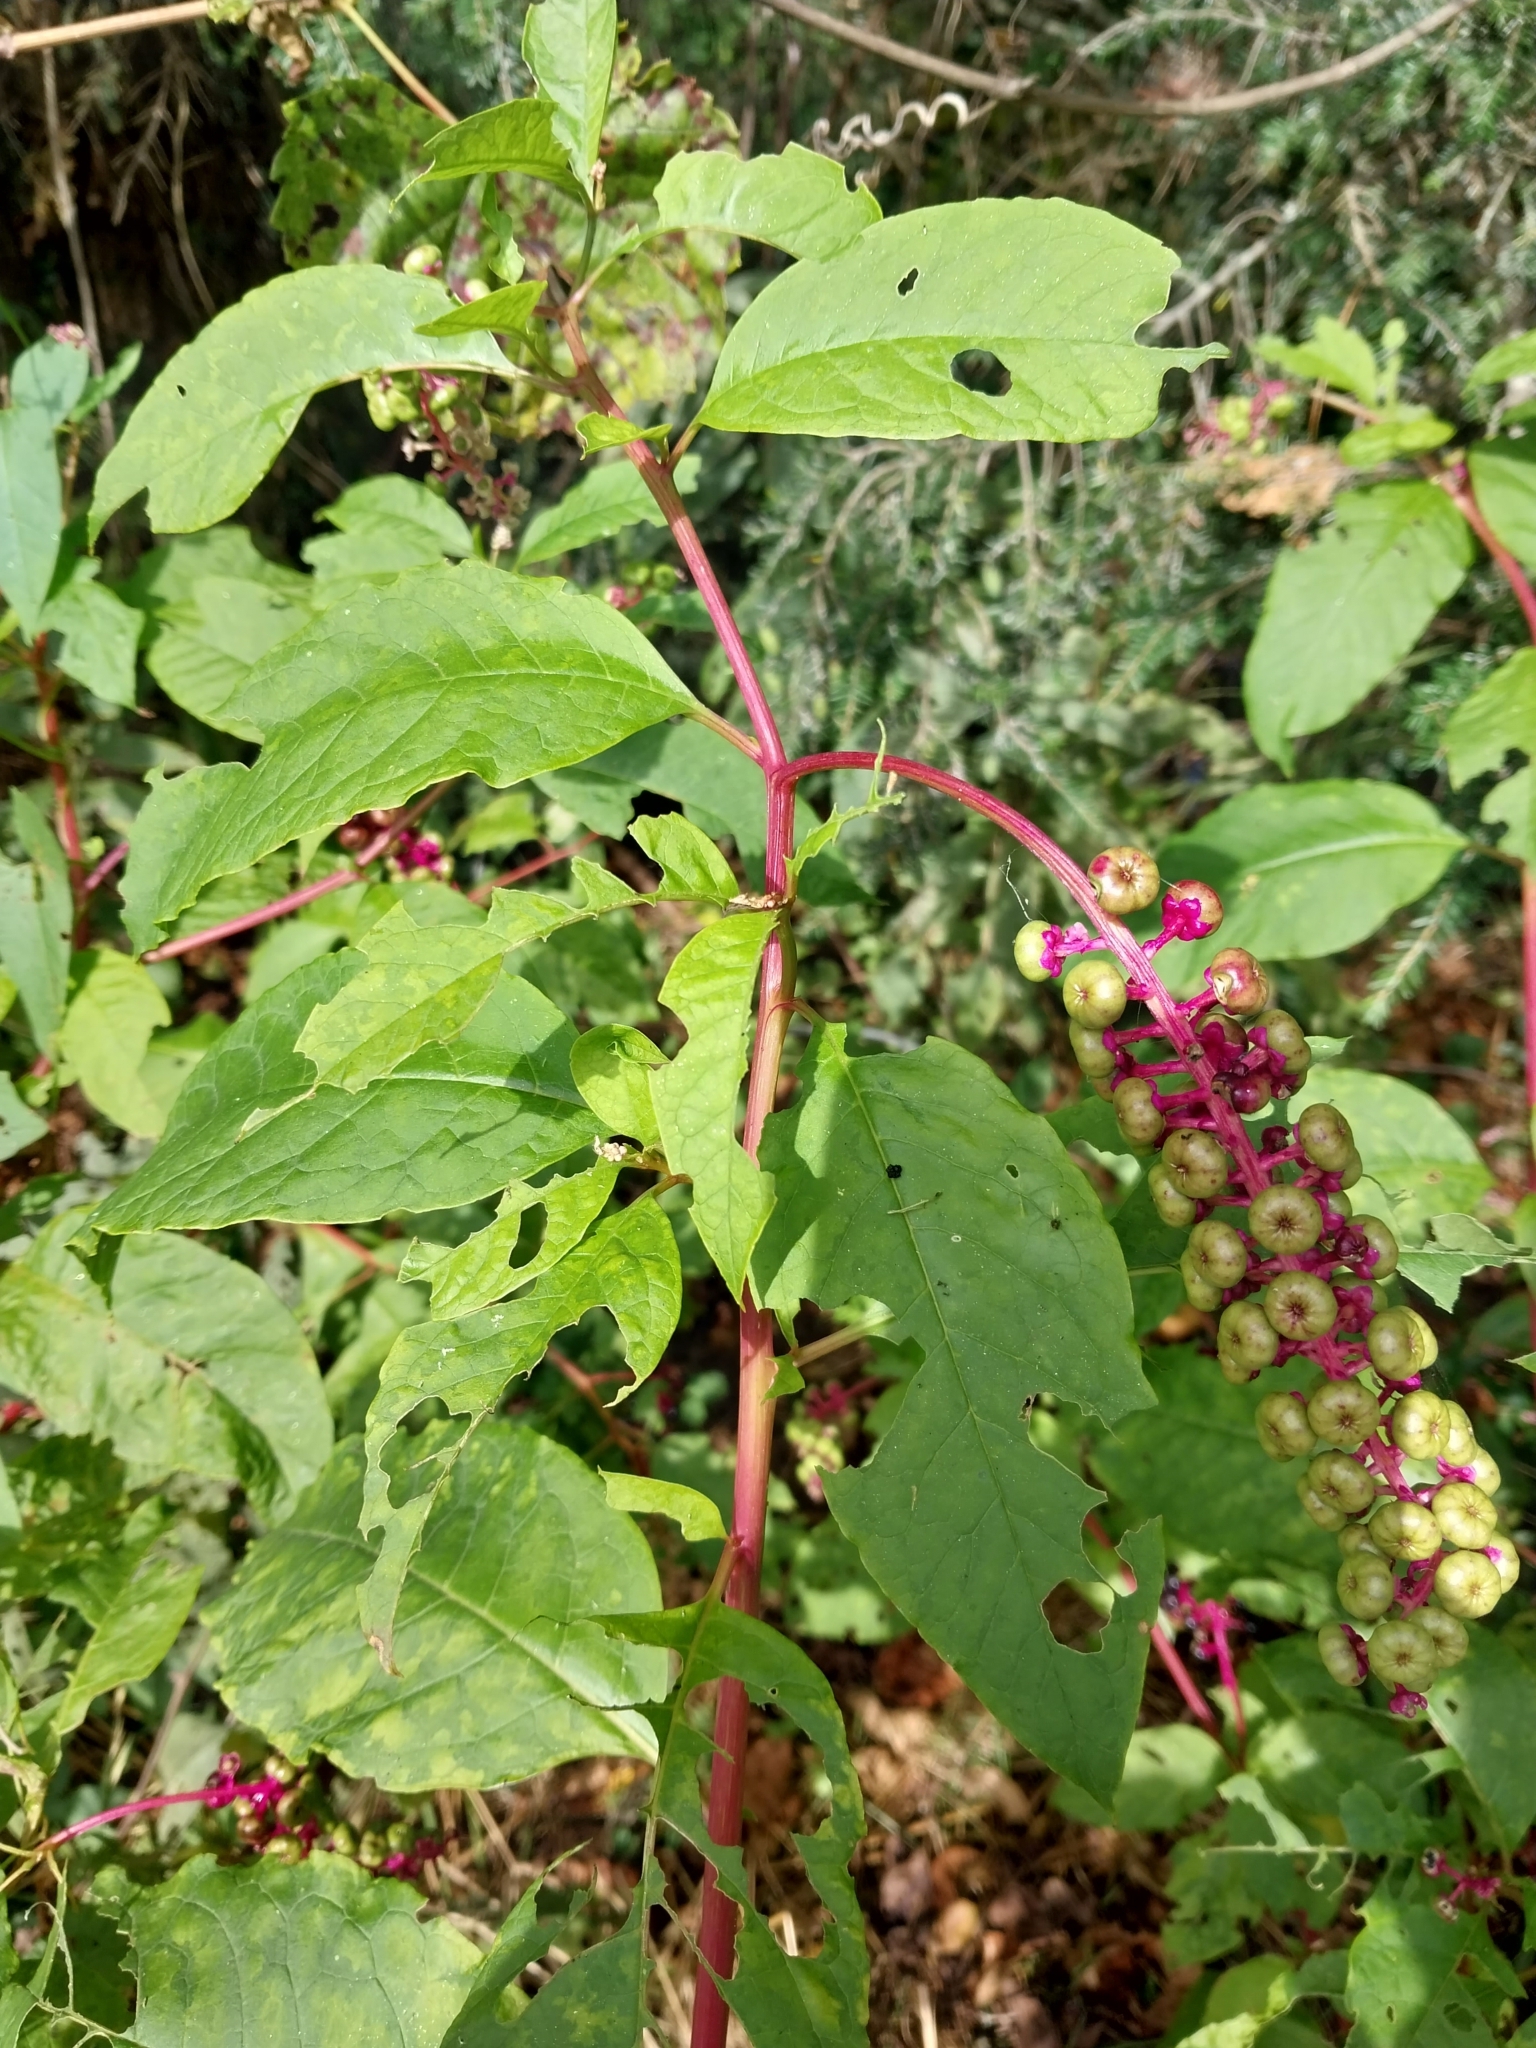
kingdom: Plantae
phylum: Tracheophyta
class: Magnoliopsida
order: Caryophyllales
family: Phytolaccaceae
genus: Phytolacca
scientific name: Phytolacca americana
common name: American pokeweed
